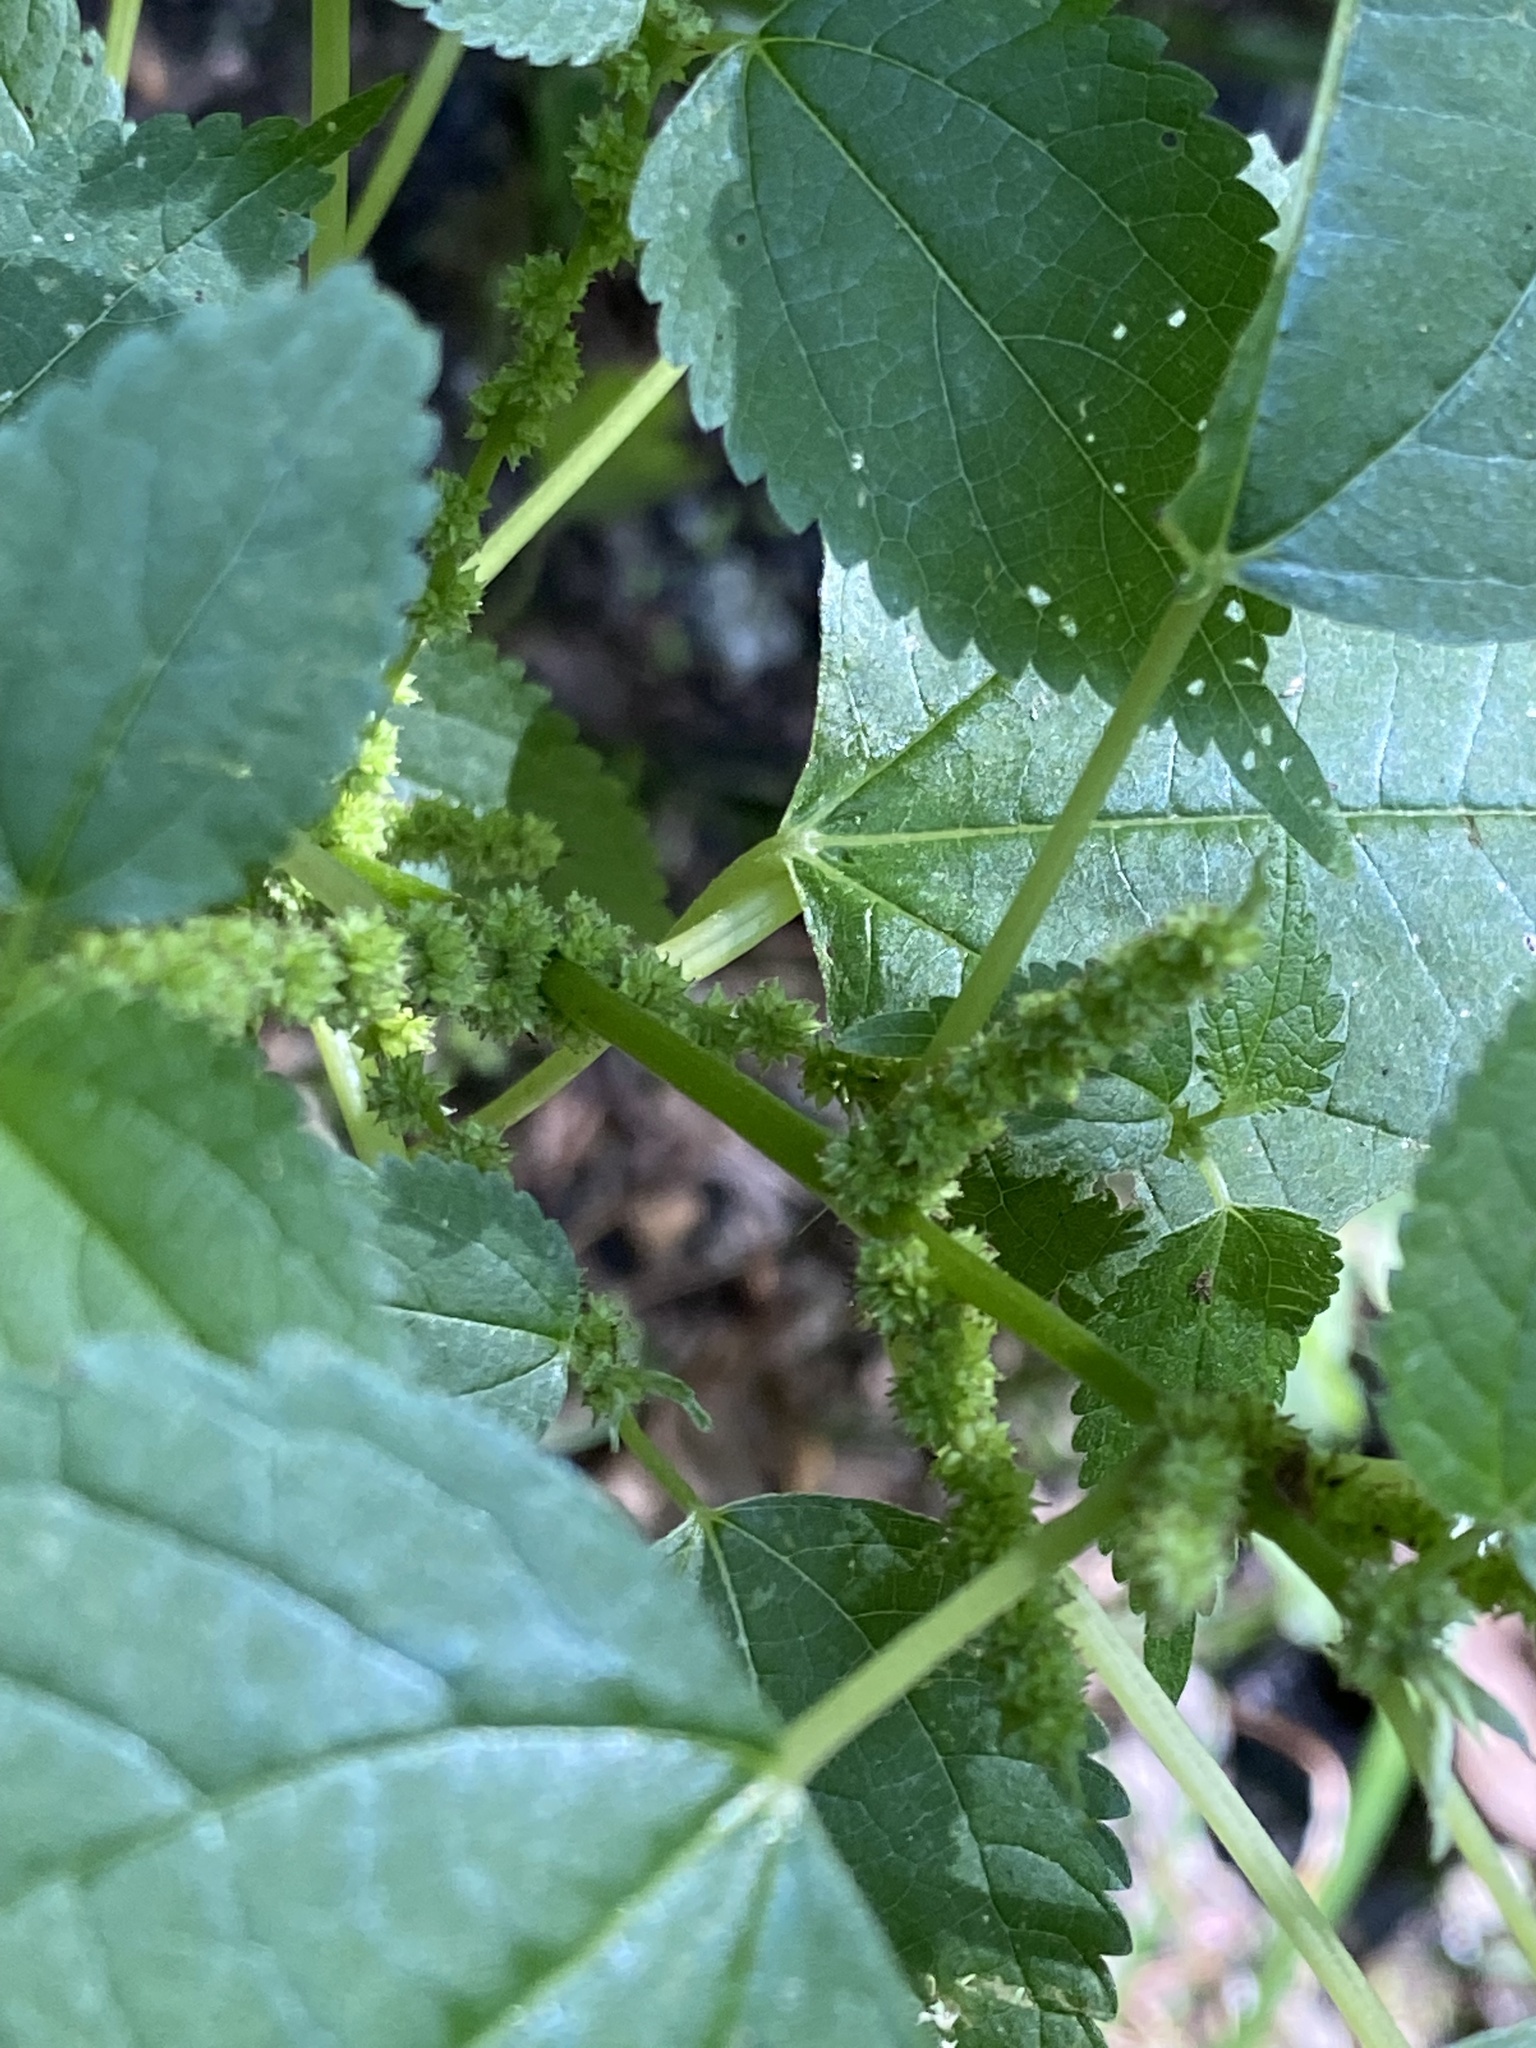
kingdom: Plantae
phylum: Tracheophyta
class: Magnoliopsida
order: Rosales
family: Urticaceae
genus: Boehmeria
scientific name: Boehmeria cylindrica
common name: Bog-hemp
